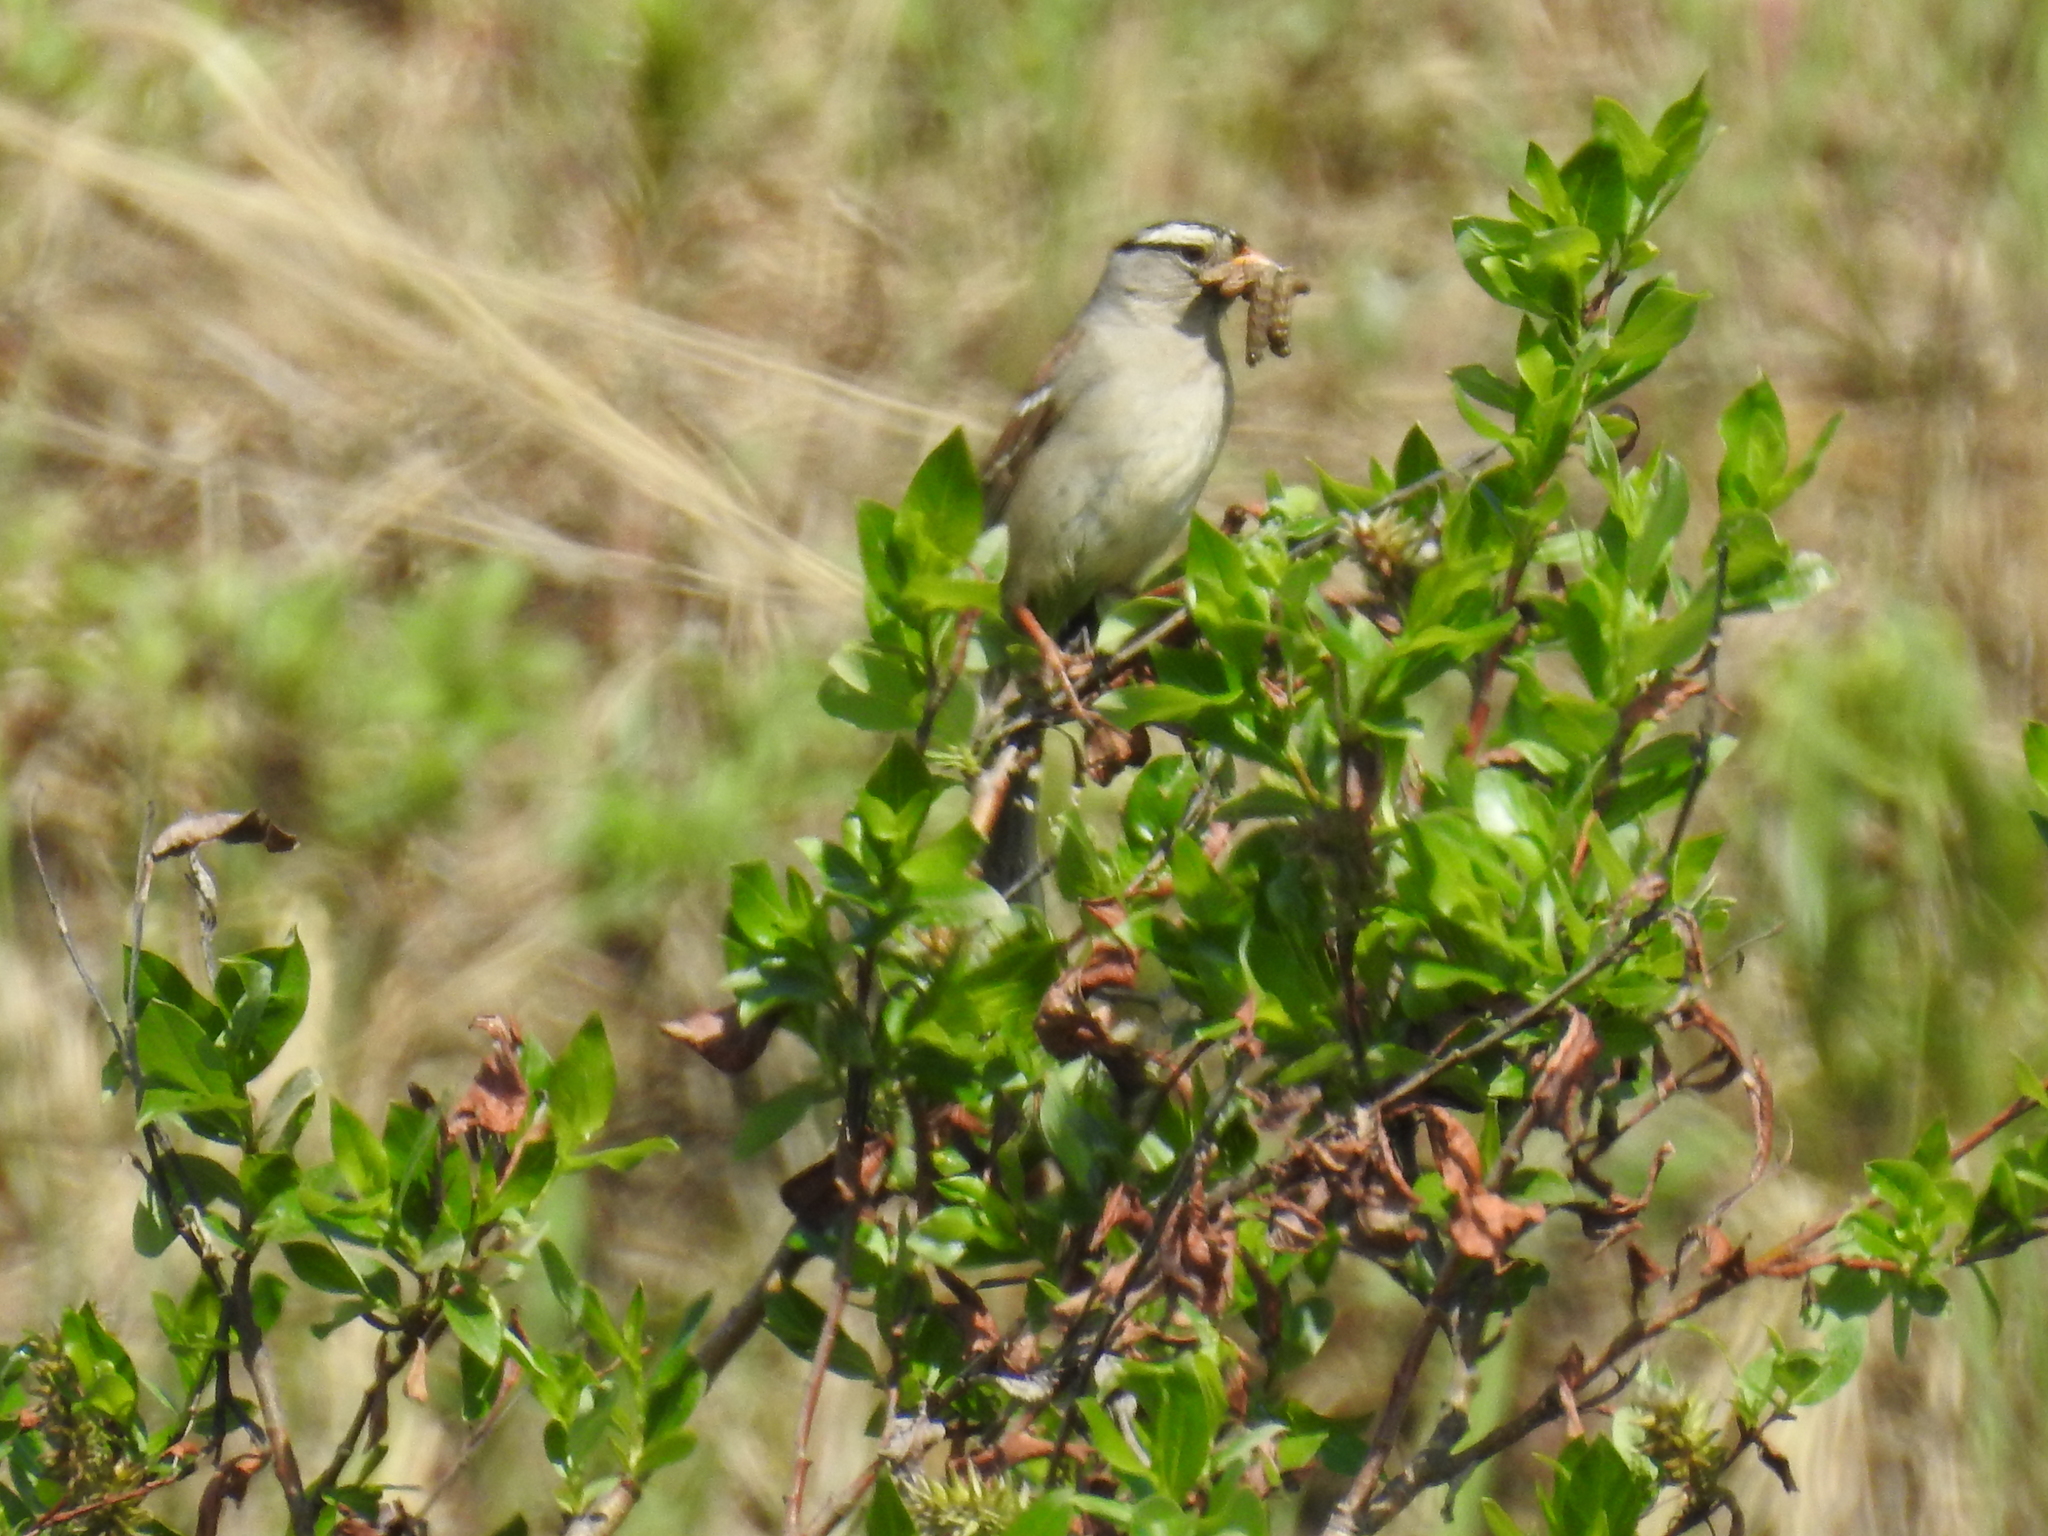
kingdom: Animalia
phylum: Chordata
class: Aves
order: Passeriformes
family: Passerellidae
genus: Zonotrichia
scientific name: Zonotrichia leucophrys
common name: White-crowned sparrow
